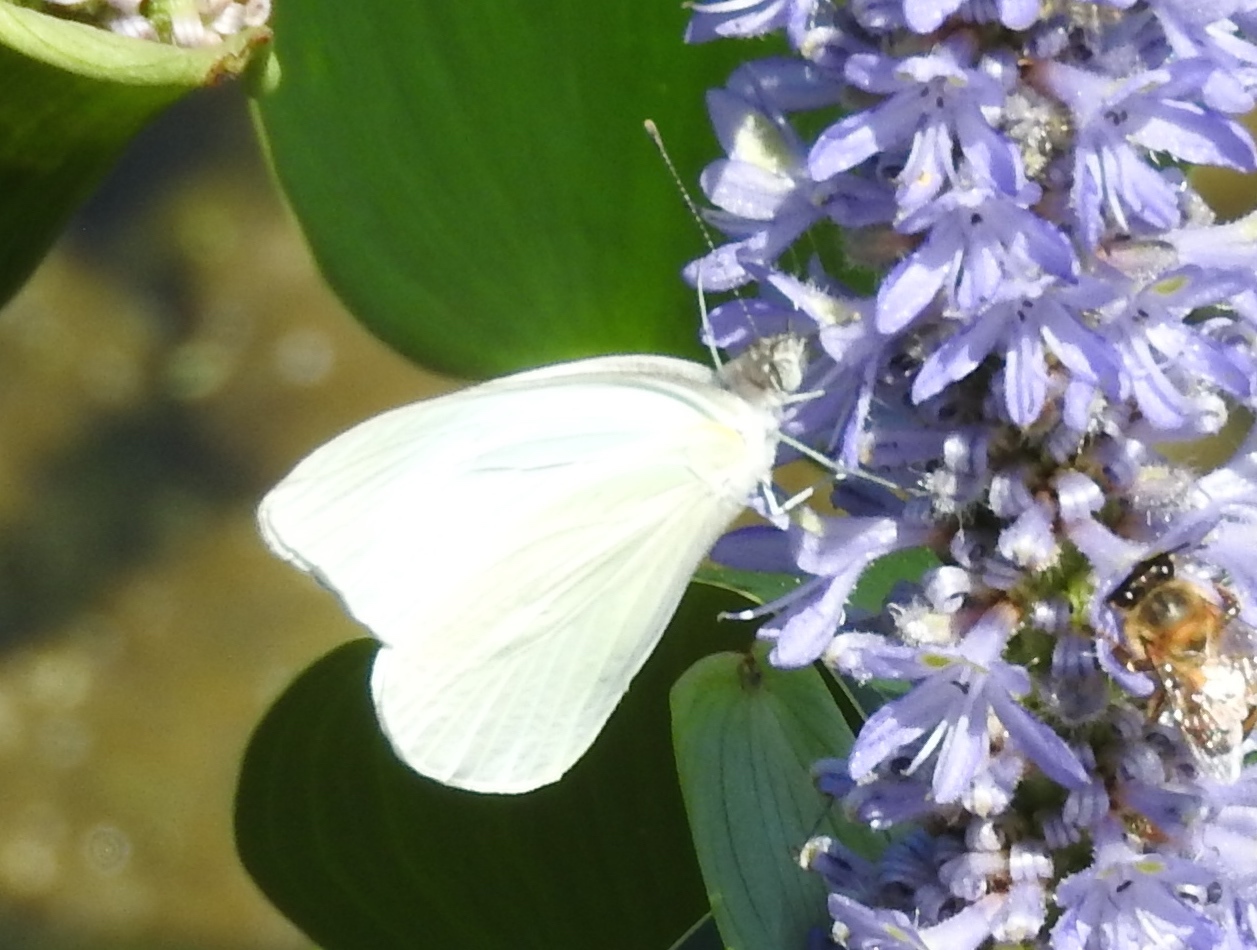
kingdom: Animalia
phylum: Arthropoda
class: Insecta
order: Lepidoptera
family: Pieridae
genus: Glutophrissa
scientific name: Glutophrissa drusilla
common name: Florida white
